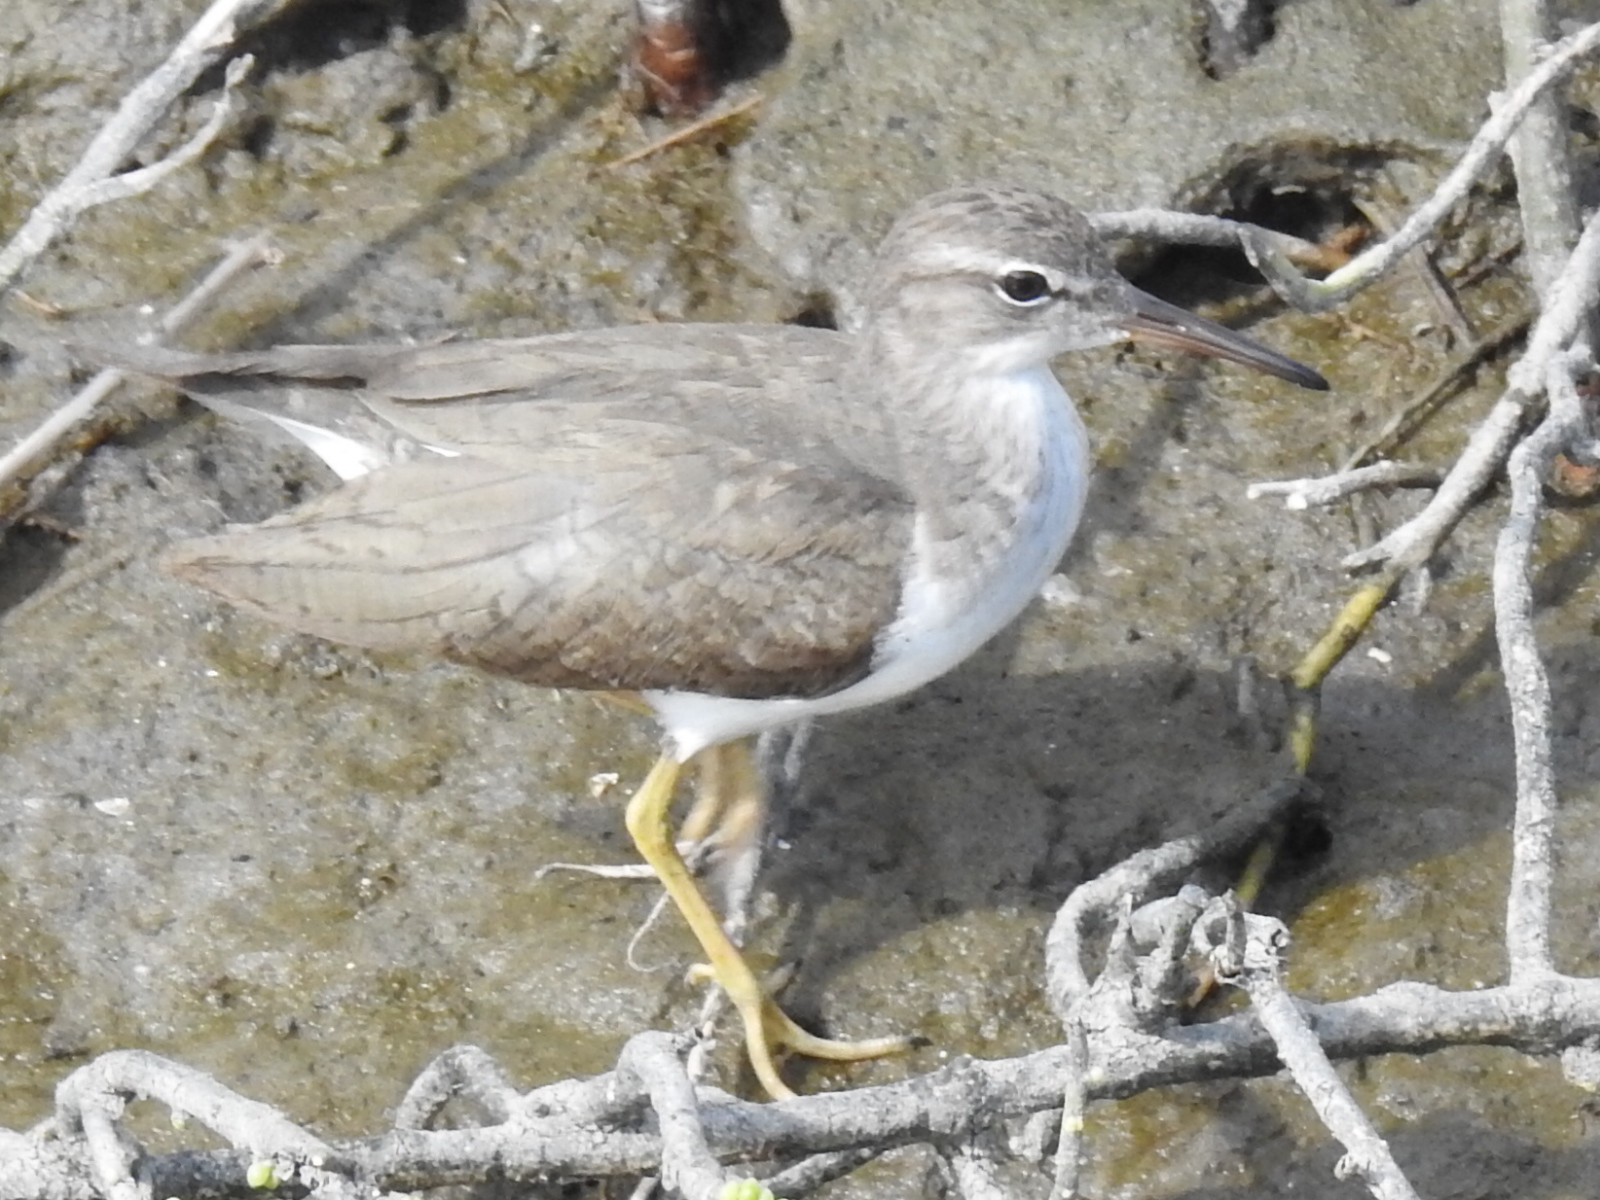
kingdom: Animalia
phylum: Chordata
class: Aves
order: Charadriiformes
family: Scolopacidae
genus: Actitis
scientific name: Actitis macularius
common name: Spotted sandpiper
